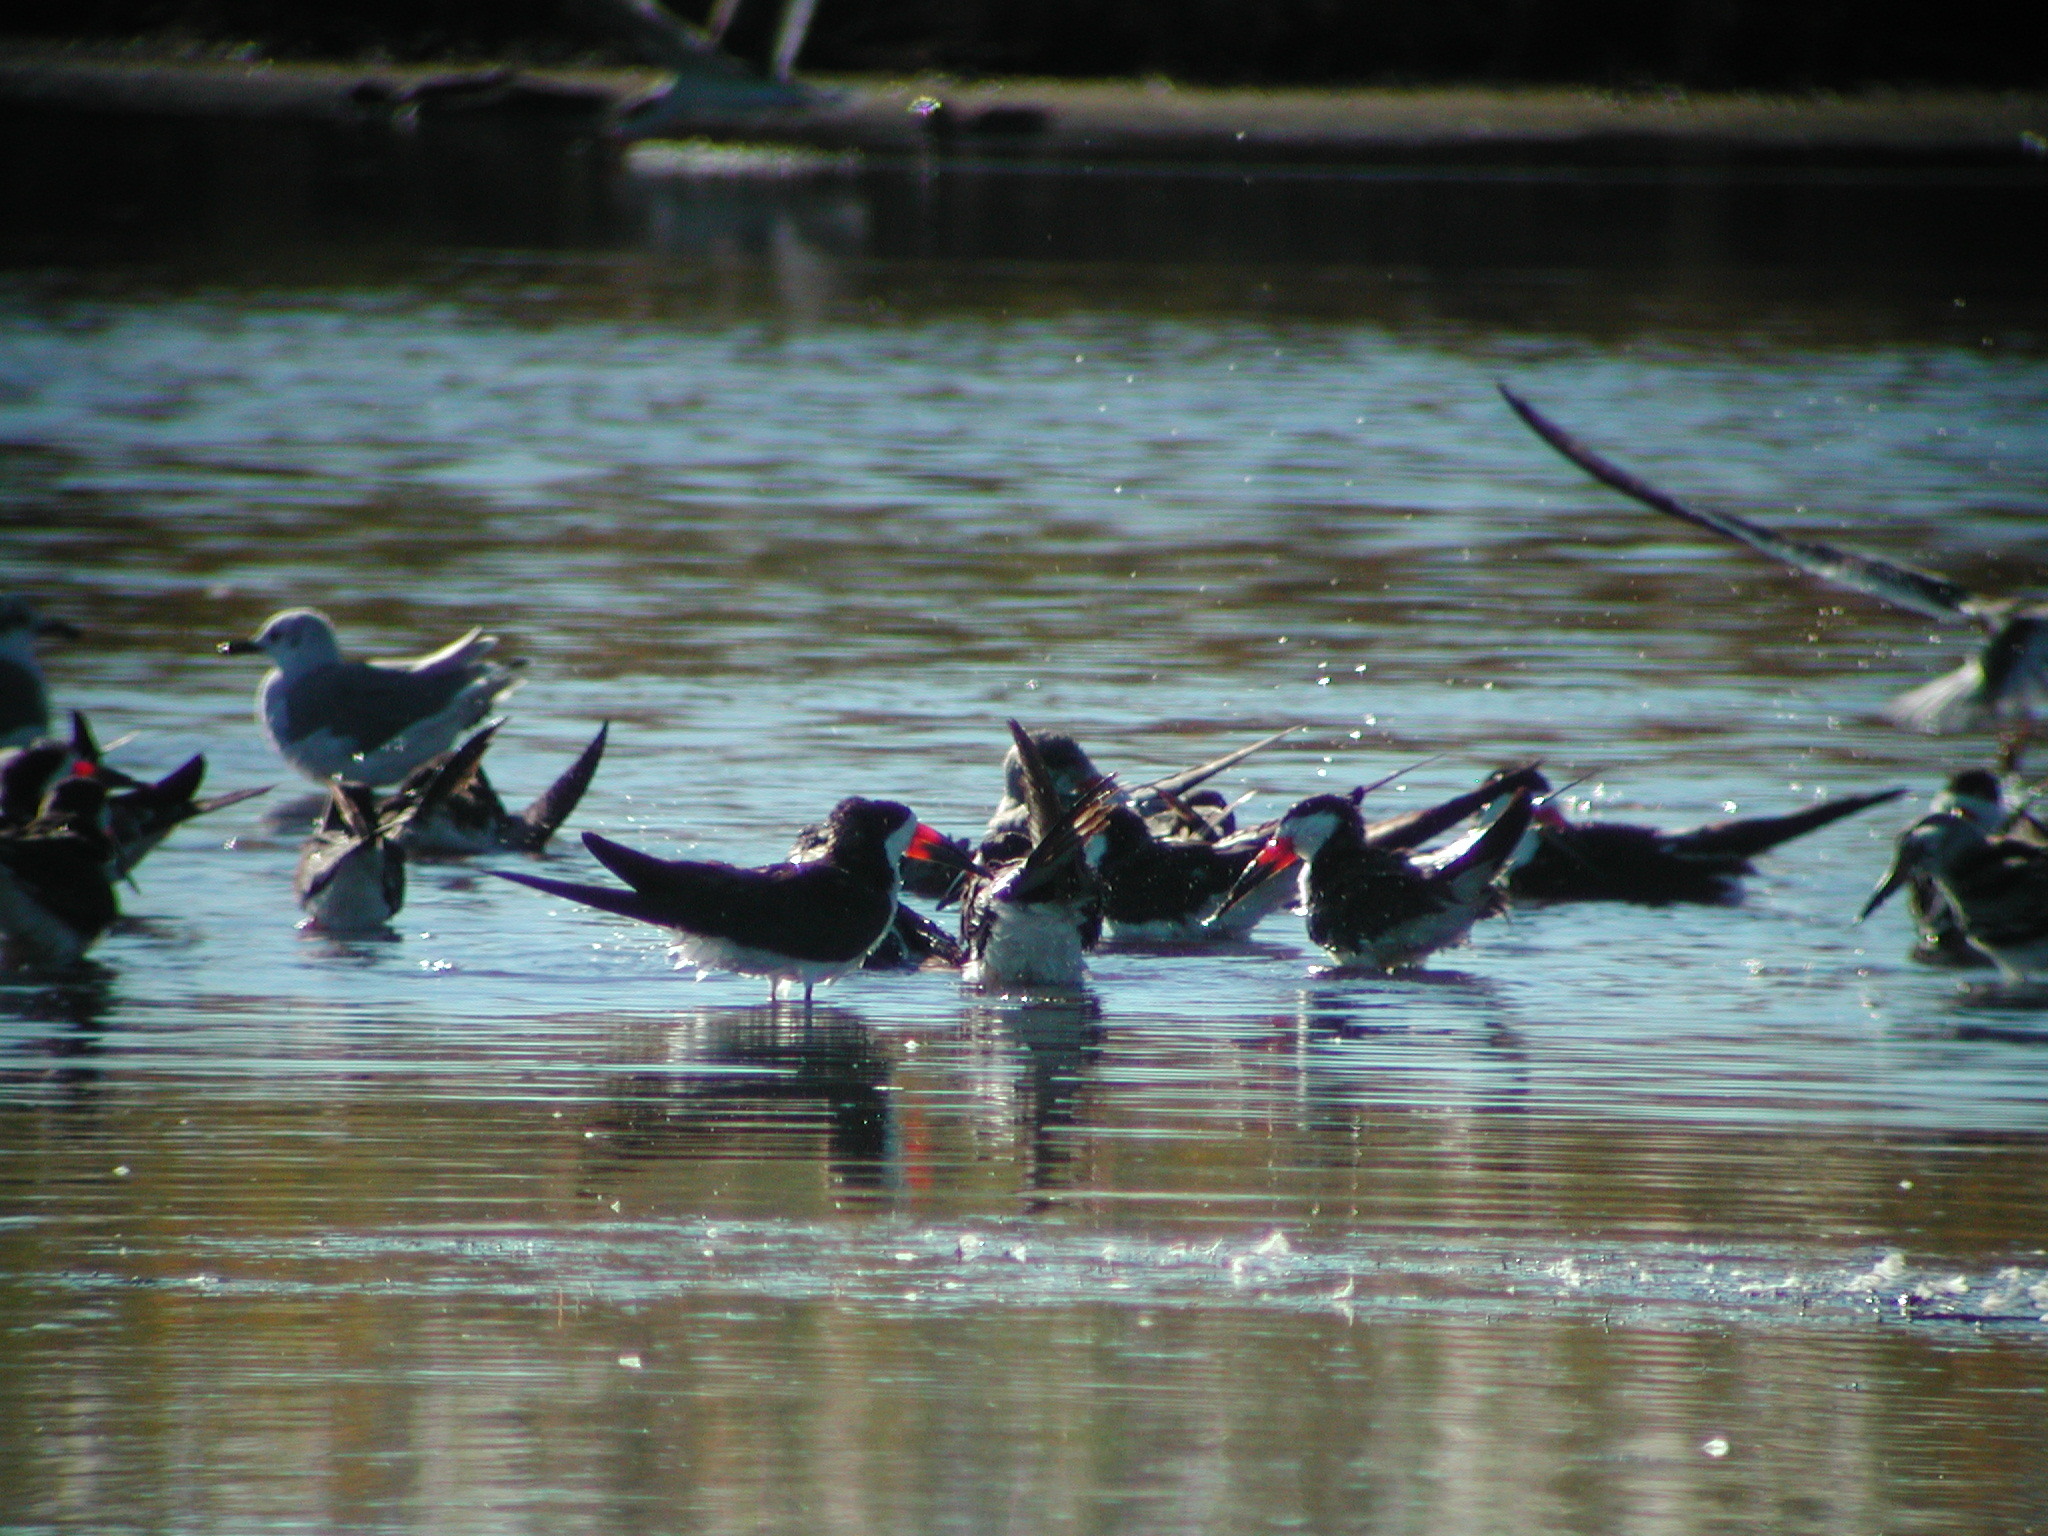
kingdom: Animalia
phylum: Chordata
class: Aves
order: Charadriiformes
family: Laridae
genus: Rynchops
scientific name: Rynchops niger
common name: Black skimmer
